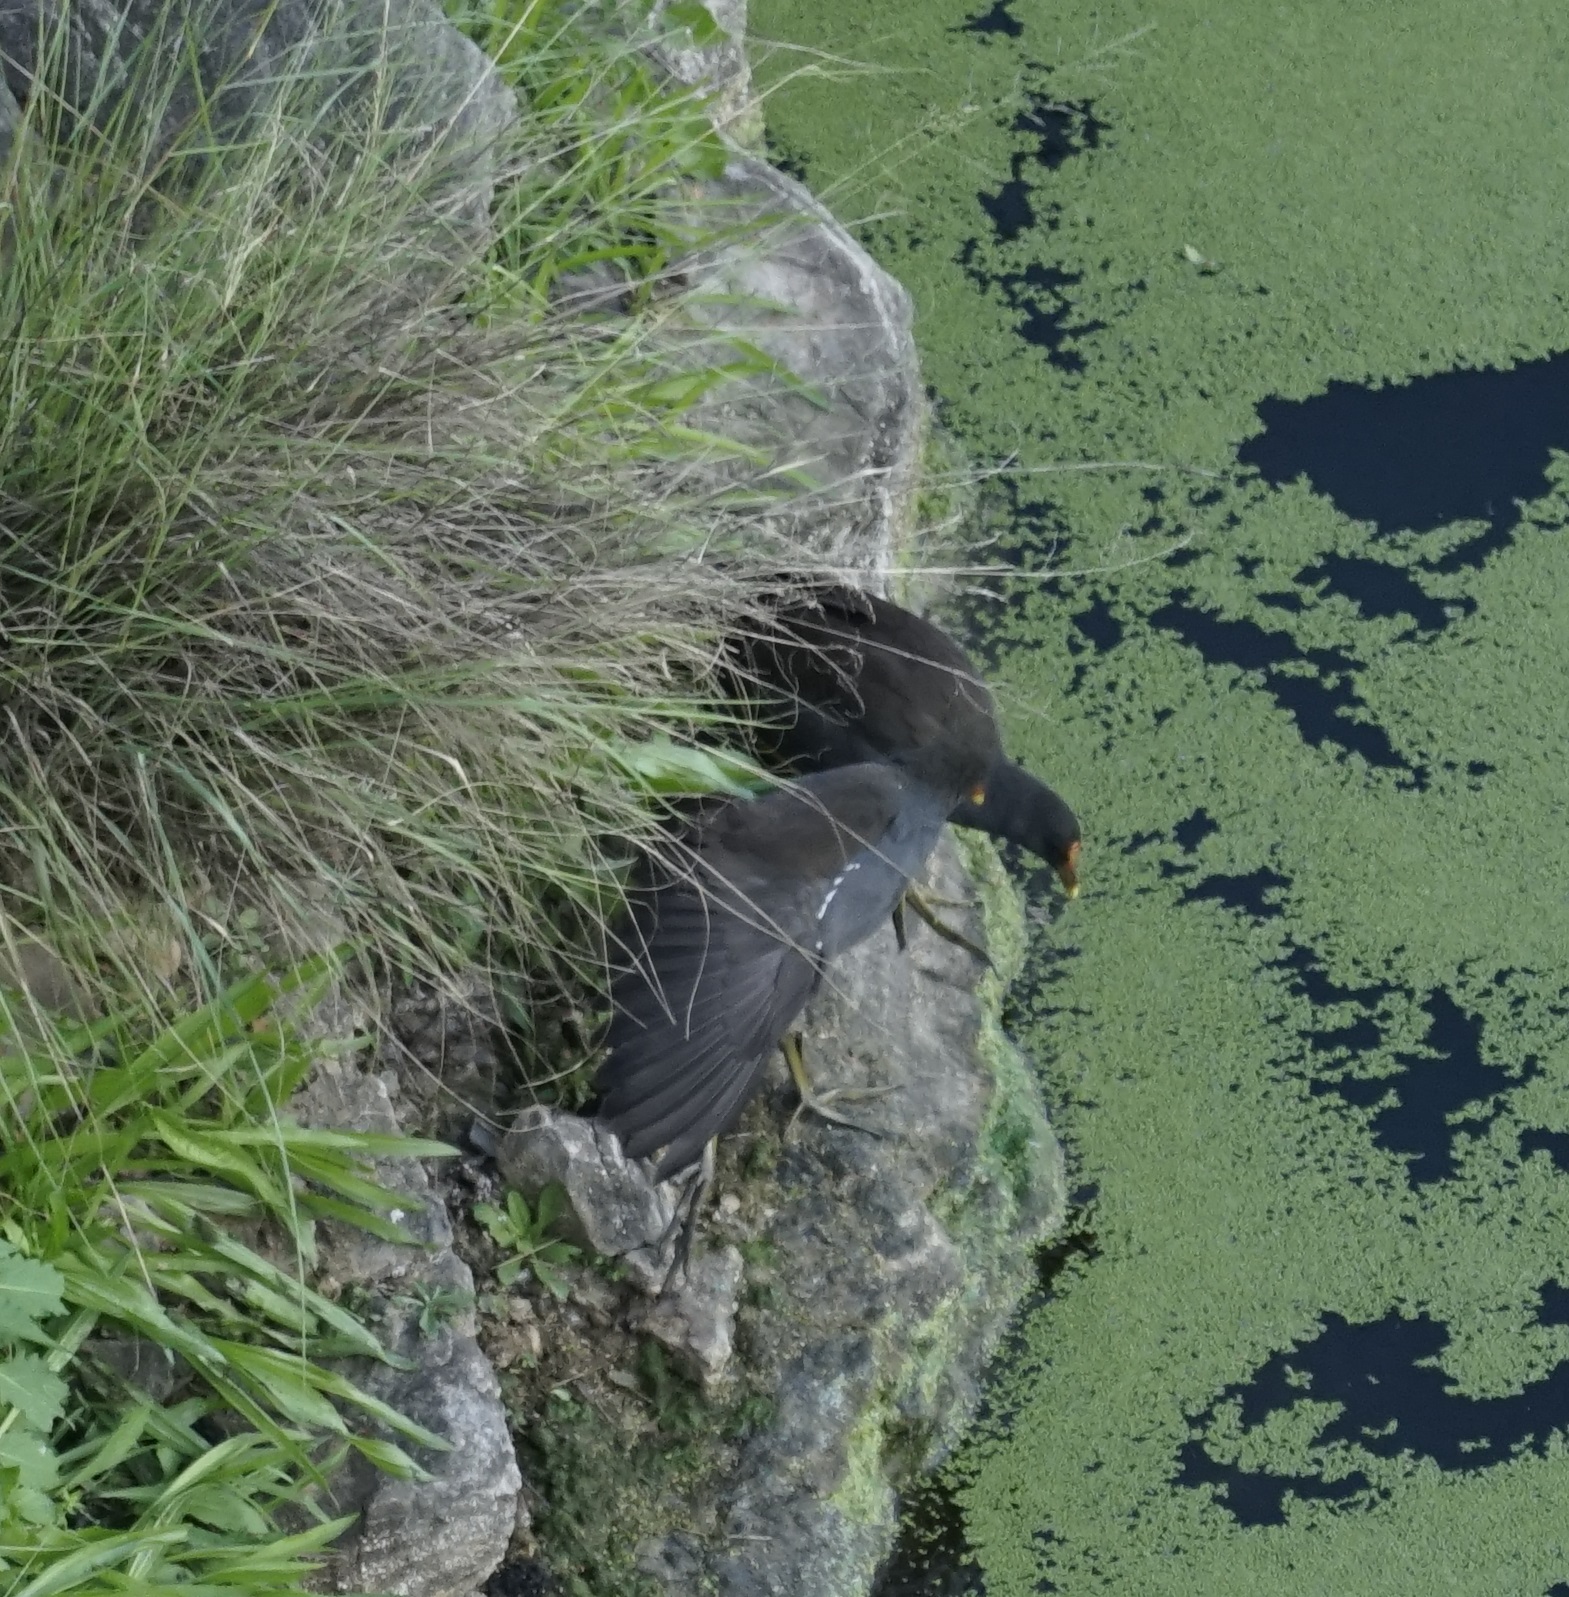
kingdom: Animalia
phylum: Chordata
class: Aves
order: Gruiformes
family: Rallidae
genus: Gallinula
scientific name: Gallinula tenebrosa
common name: Dusky moorhen
